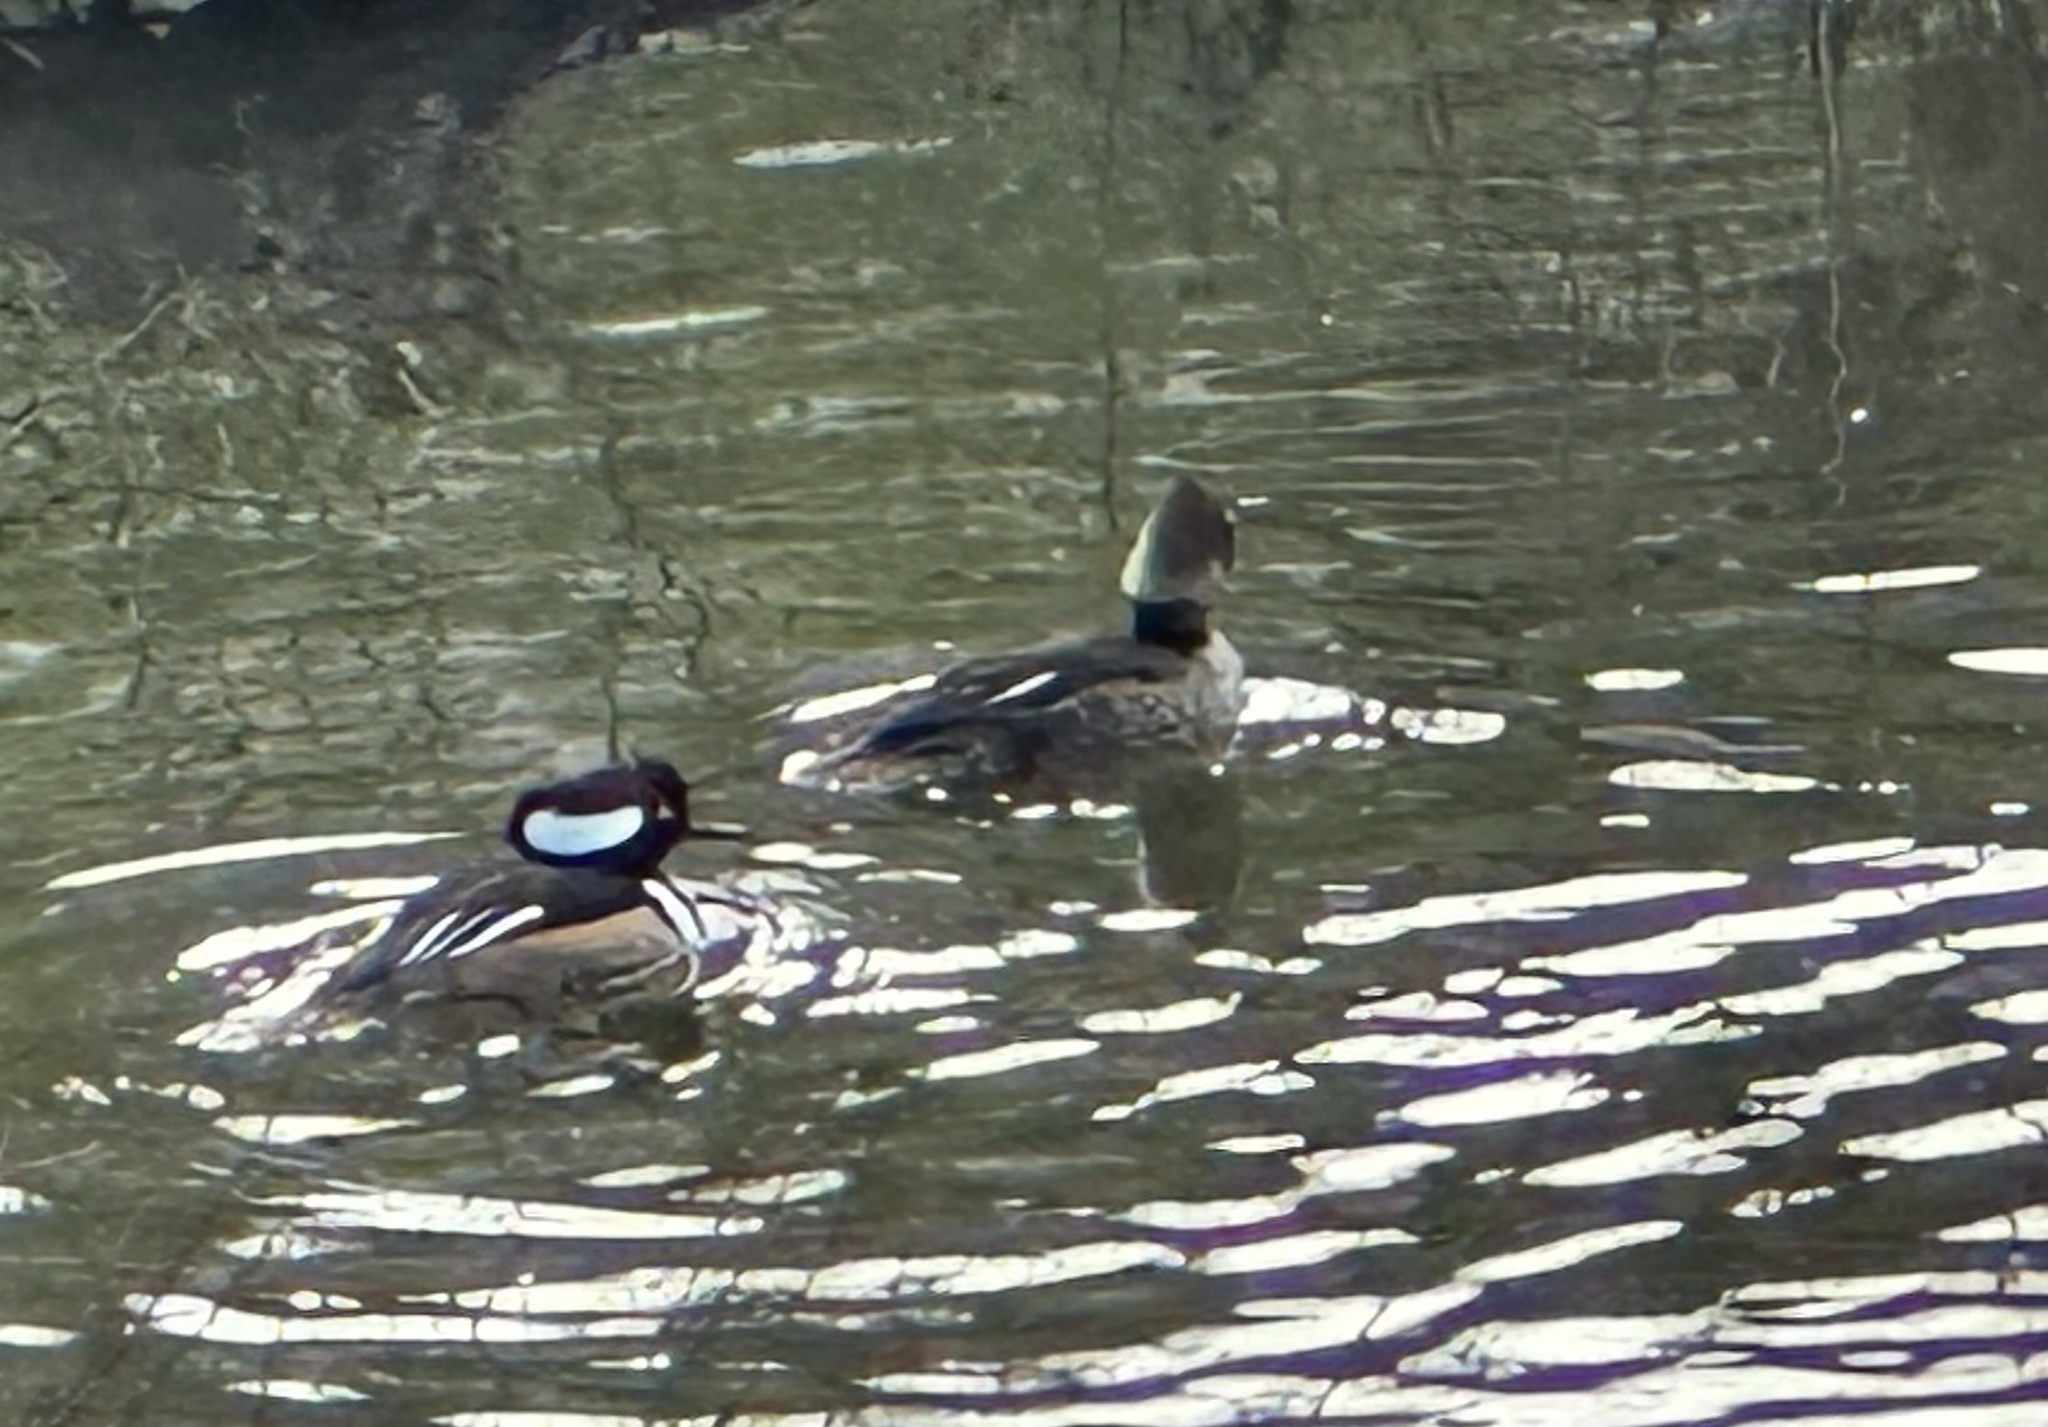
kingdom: Animalia
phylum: Chordata
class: Aves
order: Anseriformes
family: Anatidae
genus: Lophodytes
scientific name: Lophodytes cucullatus
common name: Hooded merganser
